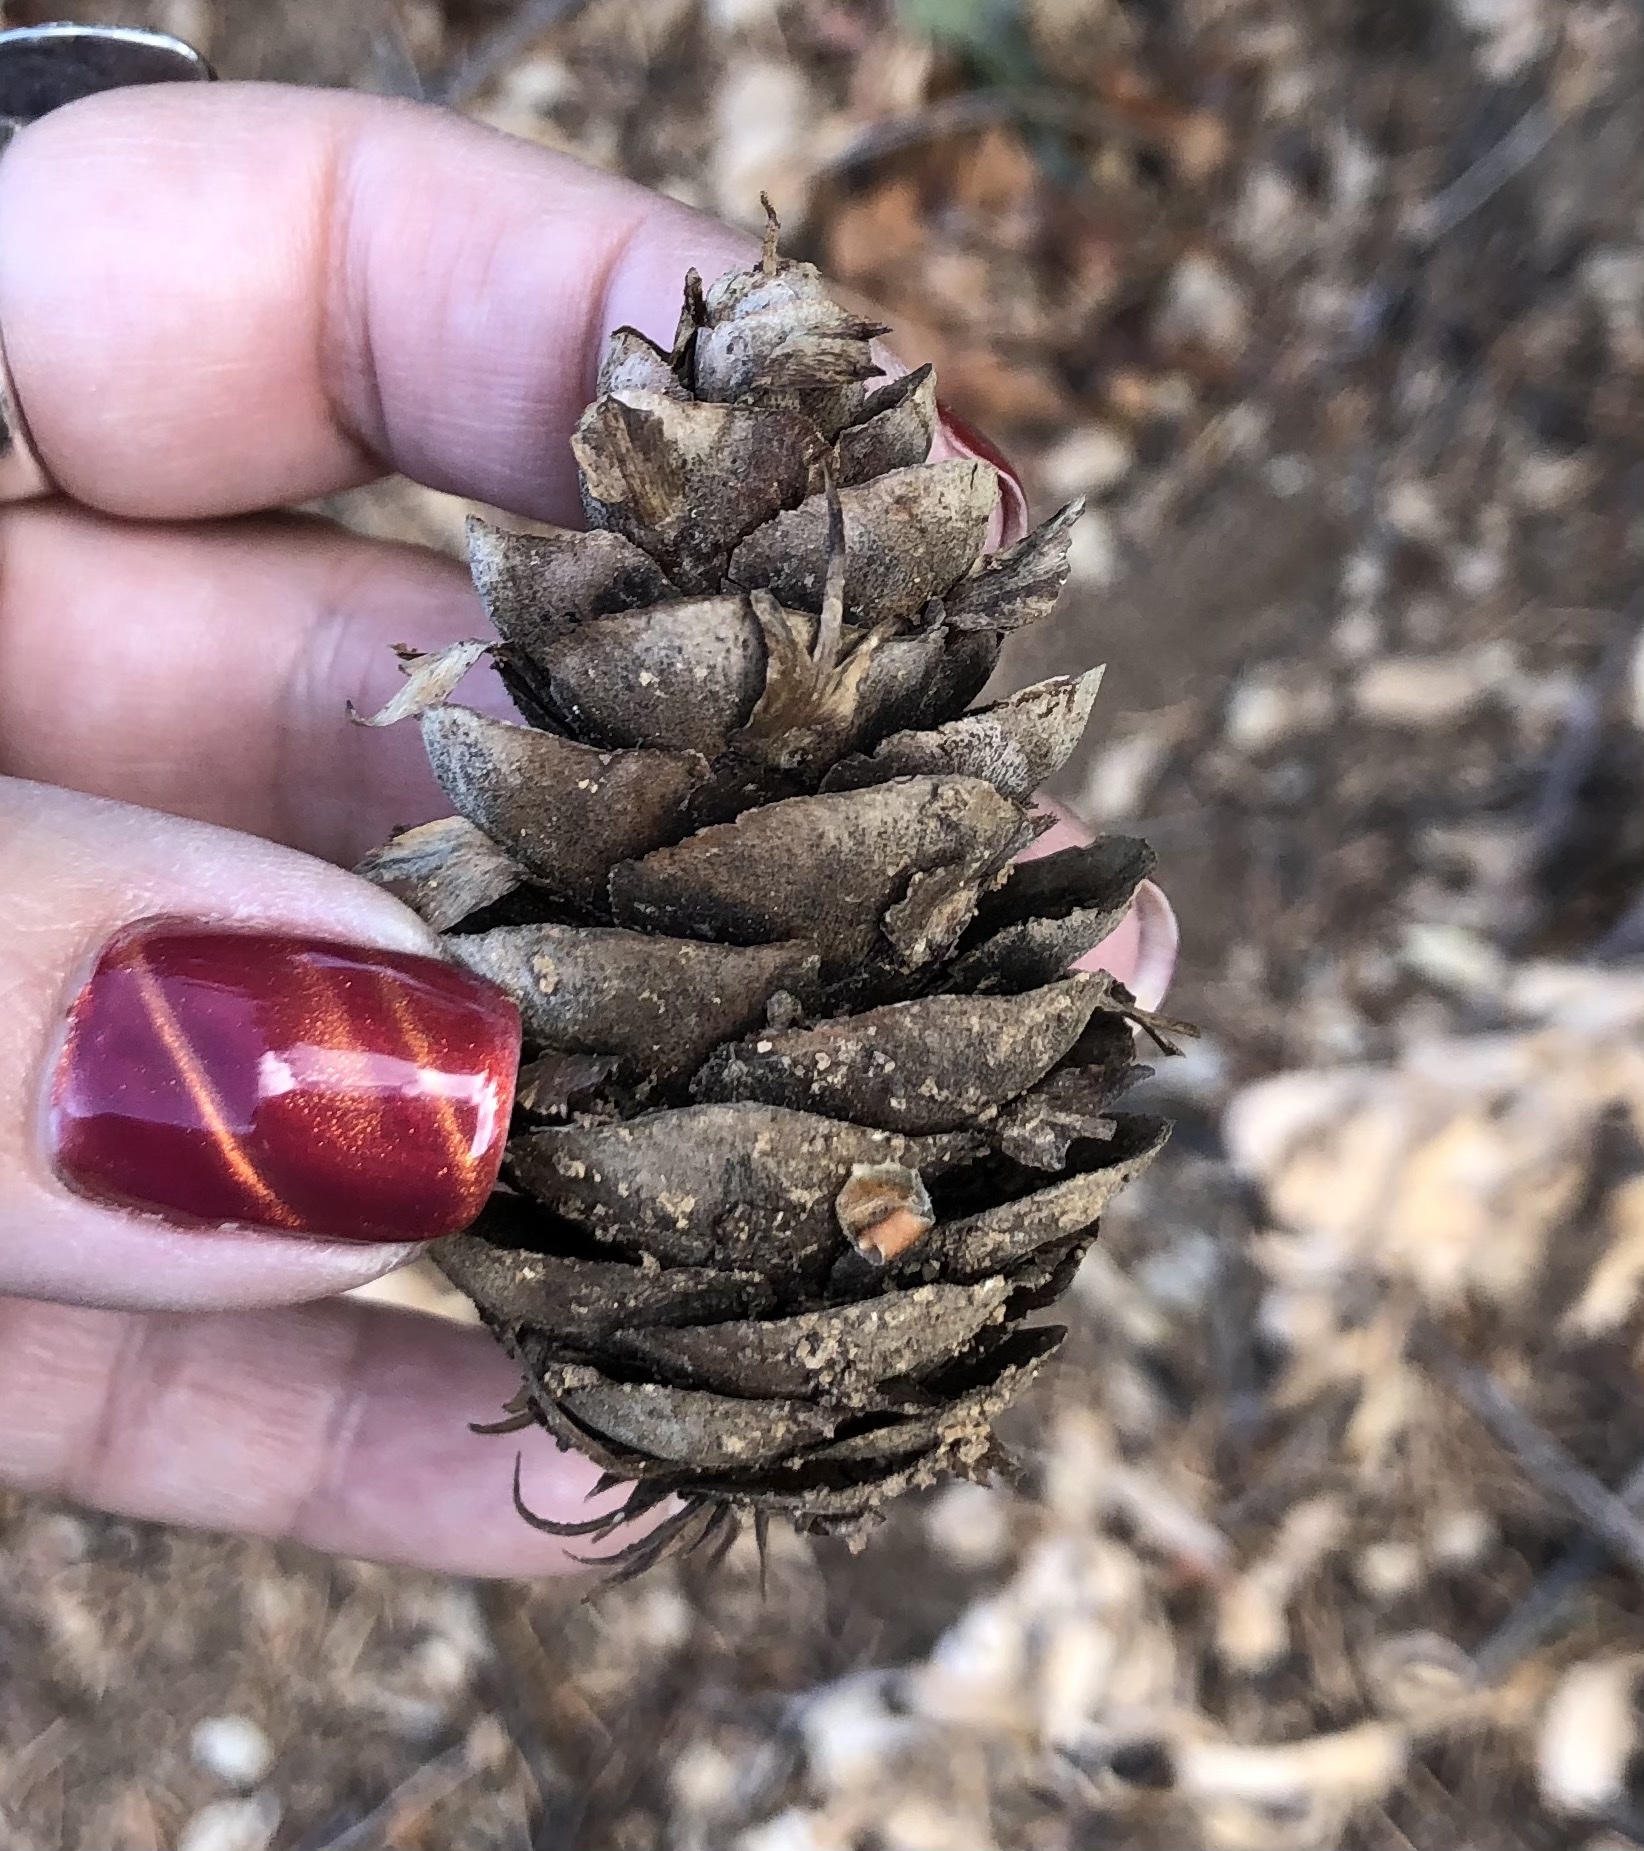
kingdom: Plantae
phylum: Tracheophyta
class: Pinopsida
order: Pinales
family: Pinaceae
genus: Pseudotsuga
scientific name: Pseudotsuga menziesii
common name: Douglas fir
